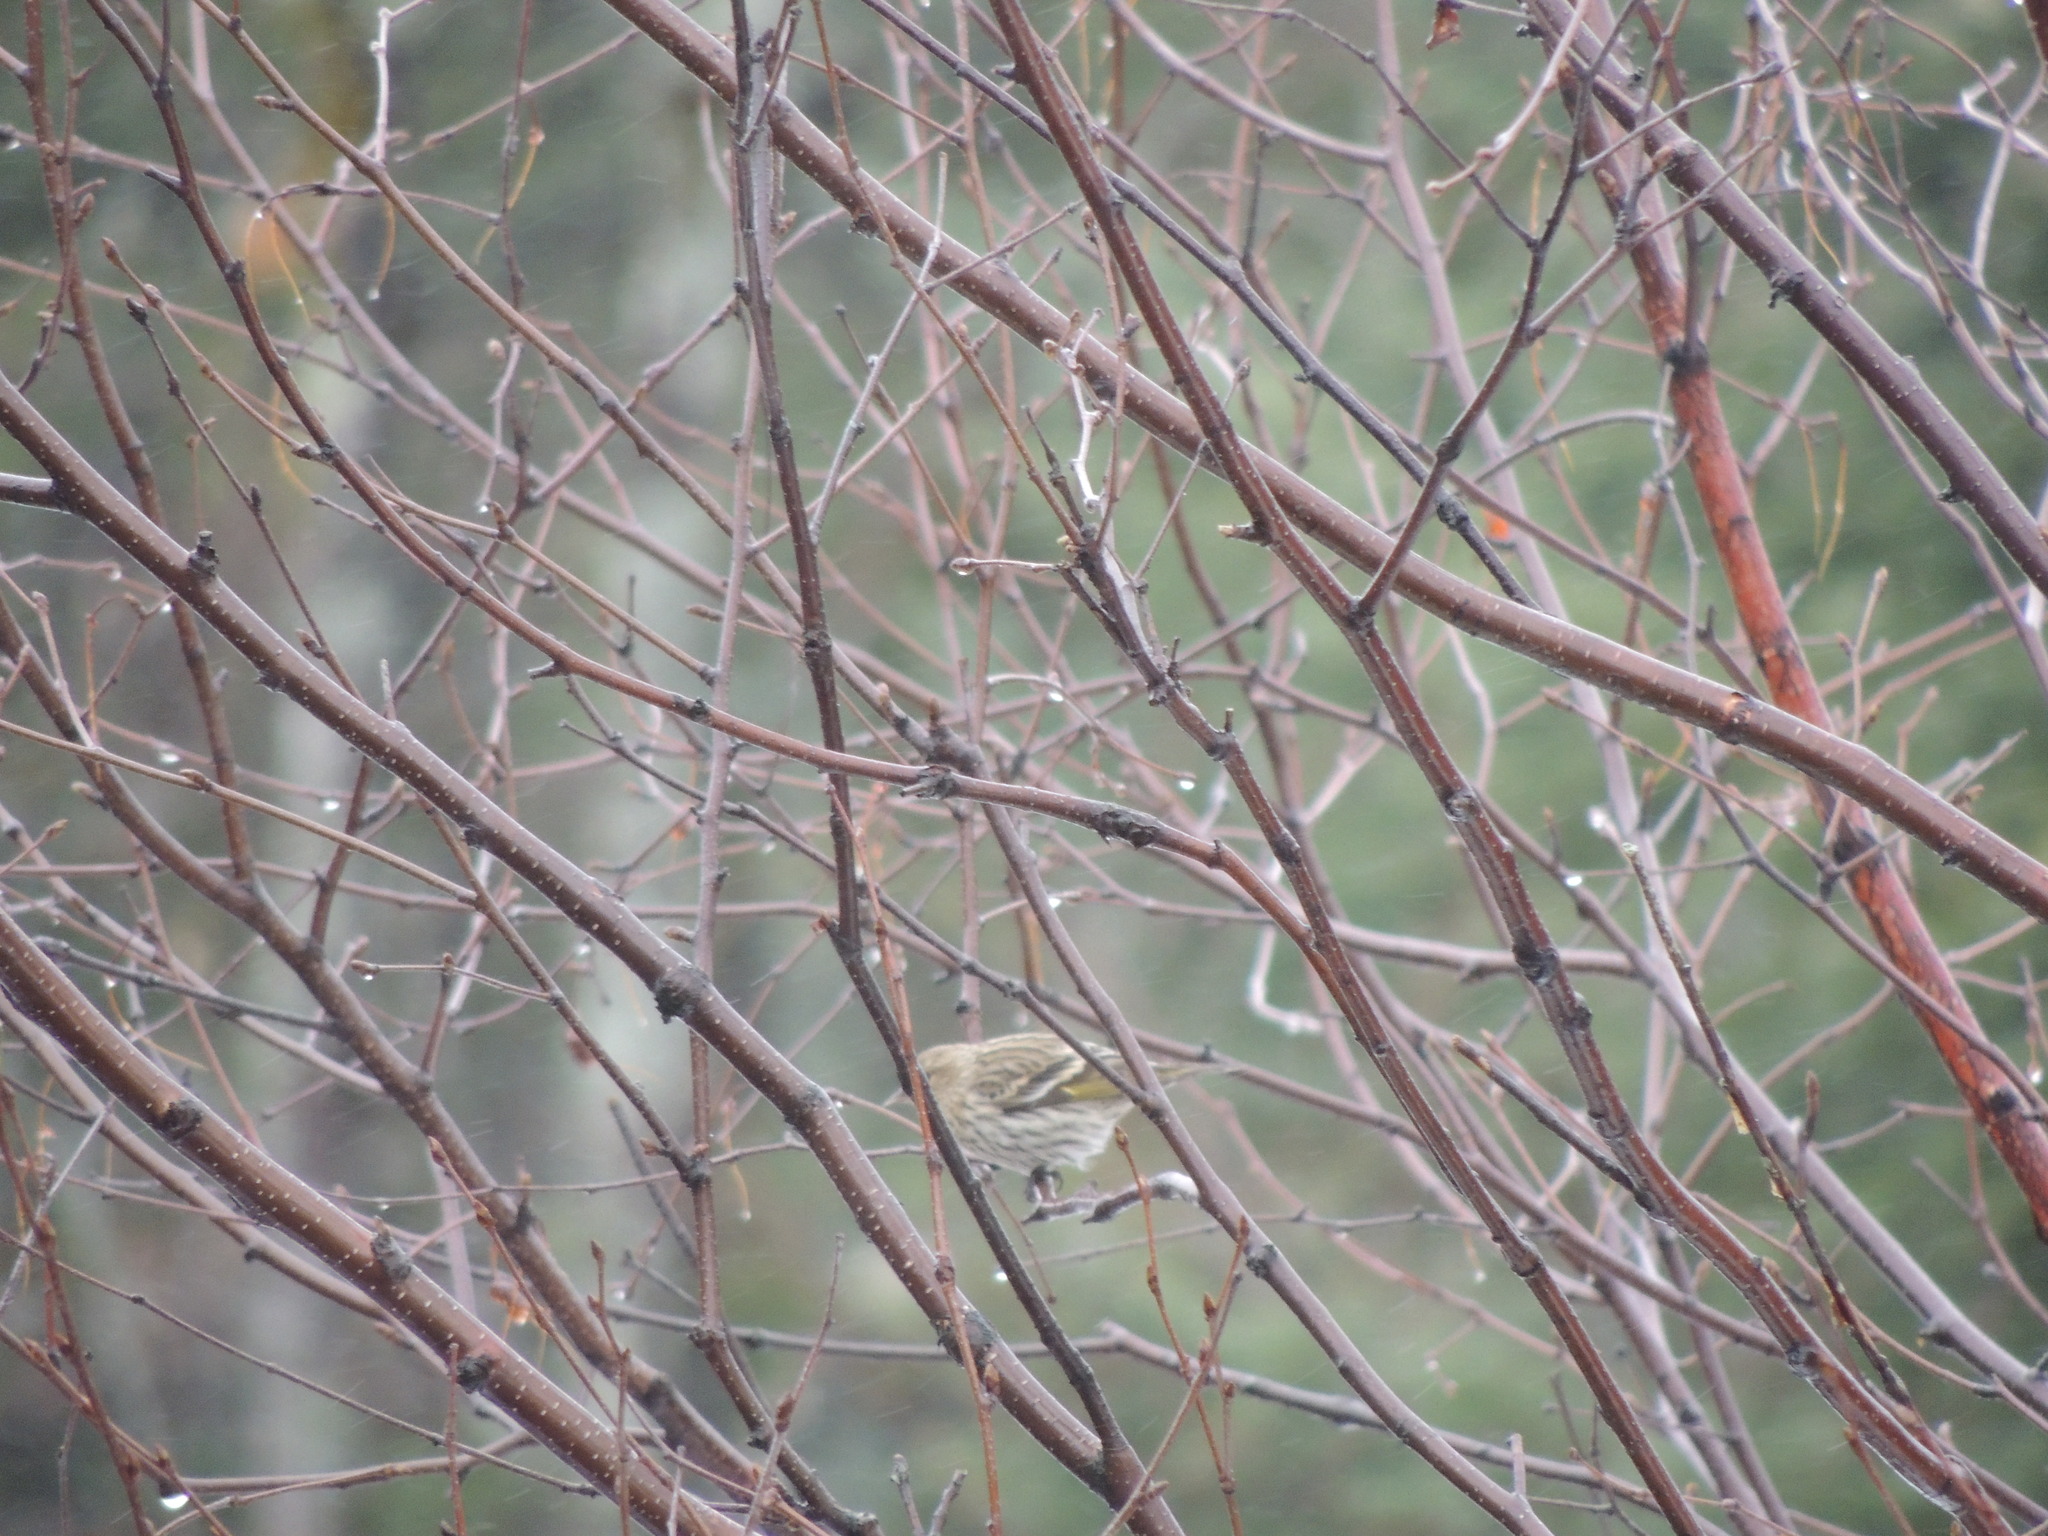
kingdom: Animalia
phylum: Chordata
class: Aves
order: Passeriformes
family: Fringillidae
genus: Spinus
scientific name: Spinus pinus
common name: Pine siskin
